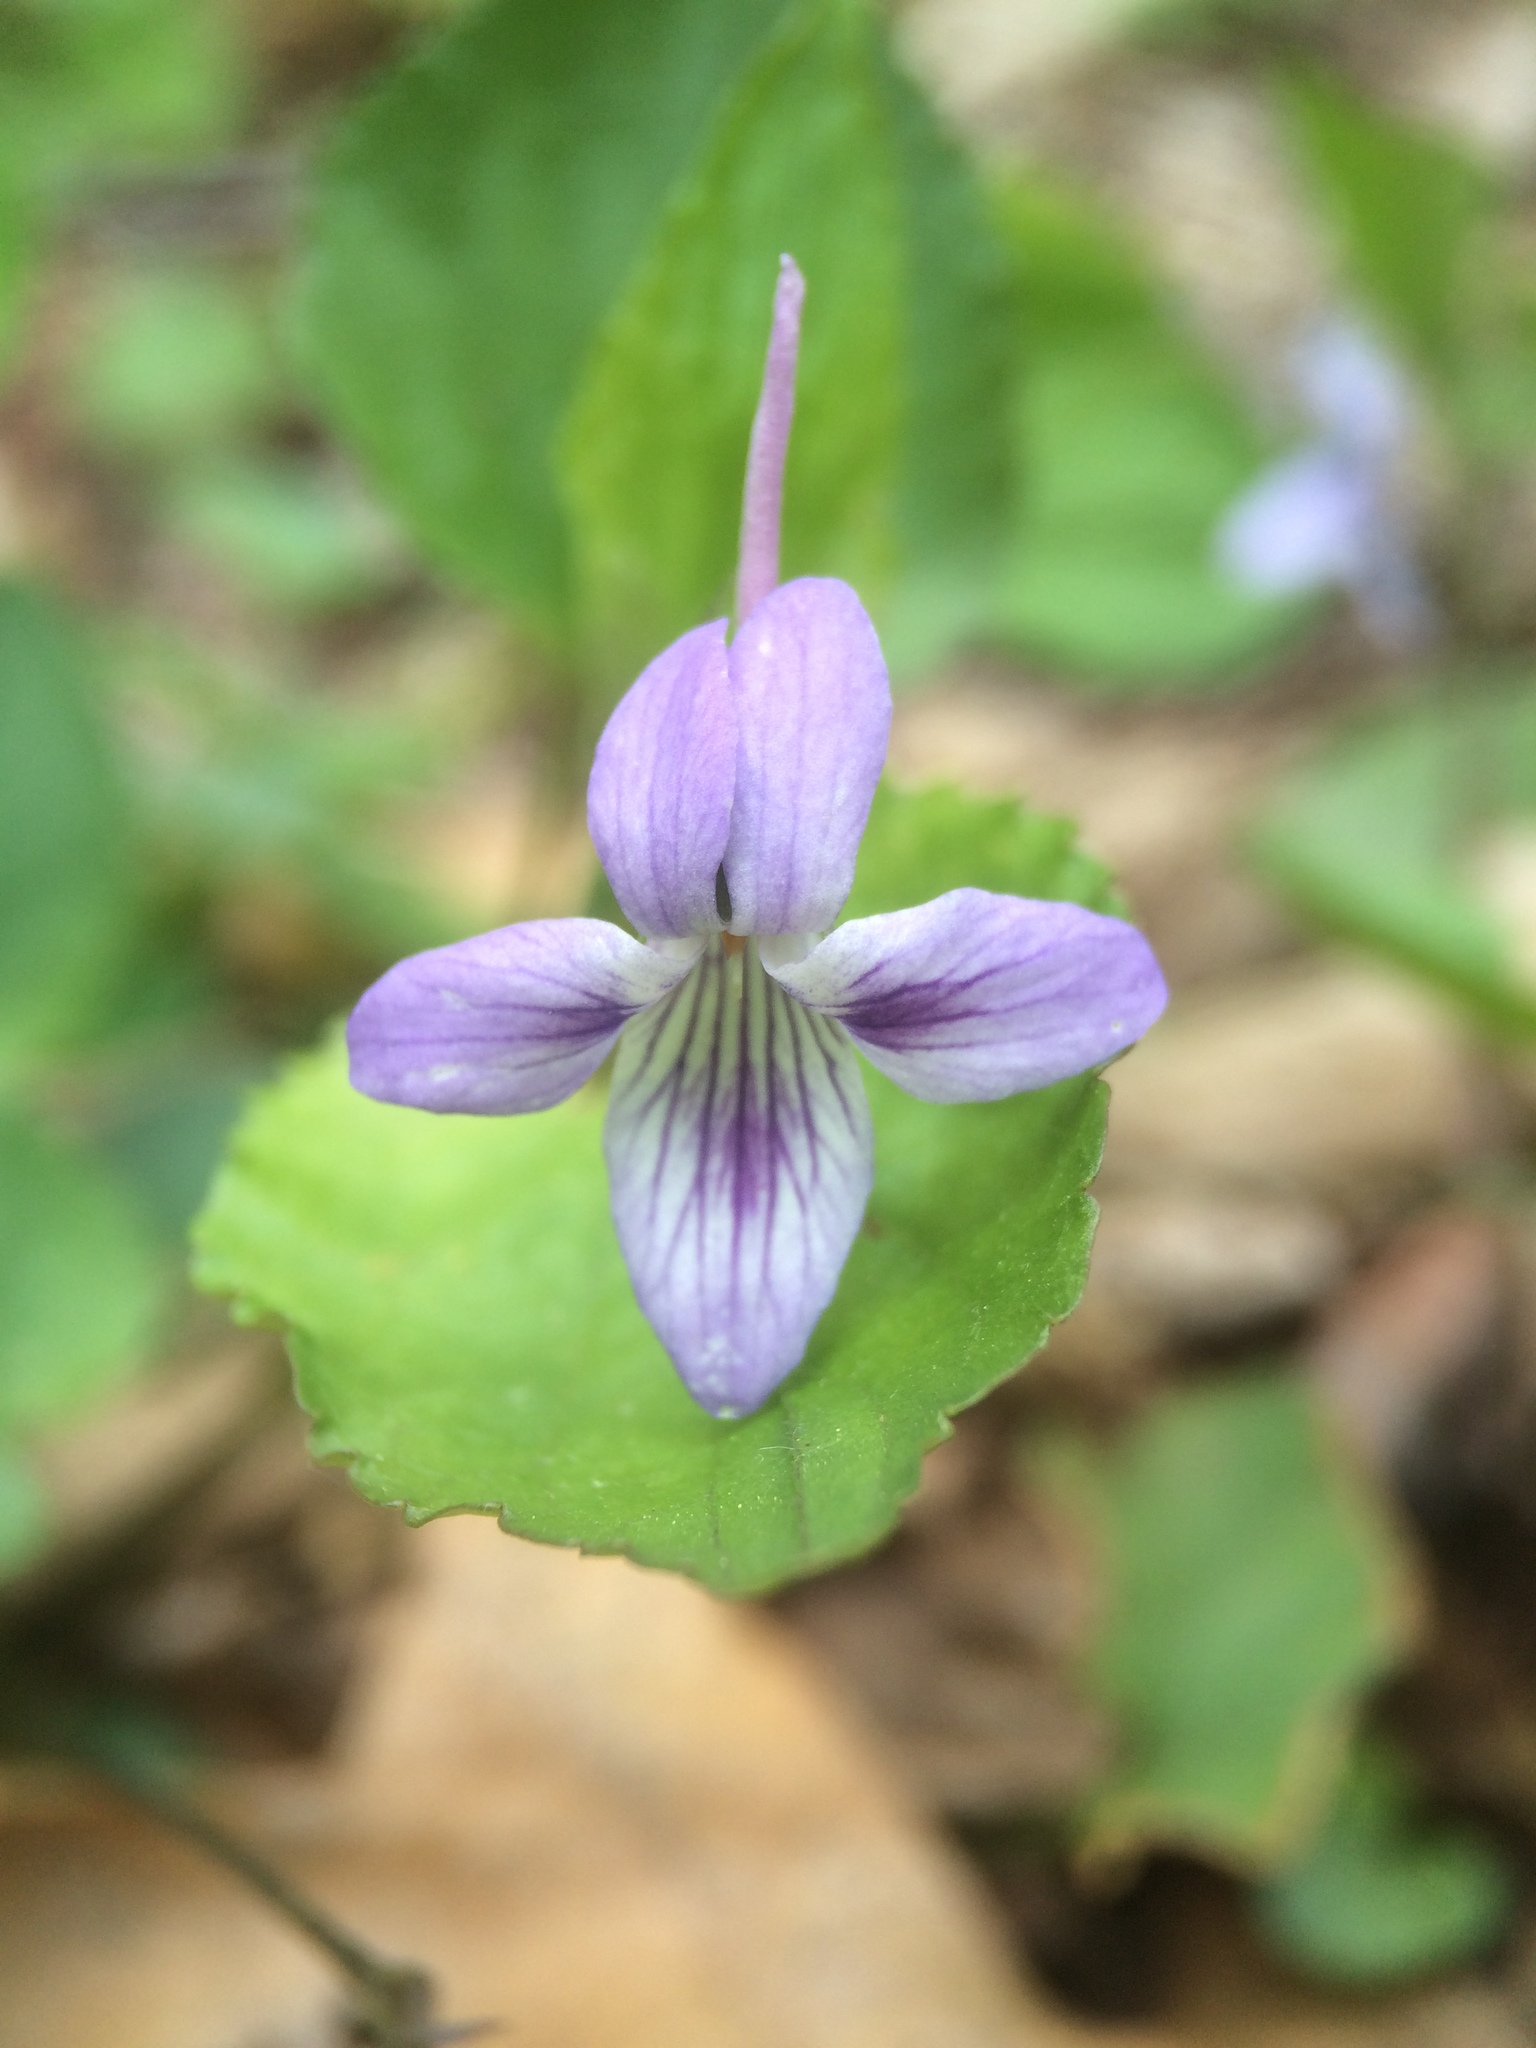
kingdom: Plantae
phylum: Tracheophyta
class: Magnoliopsida
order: Malpighiales
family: Violaceae
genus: Viola
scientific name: Viola rostrata
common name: Long-spur violet
